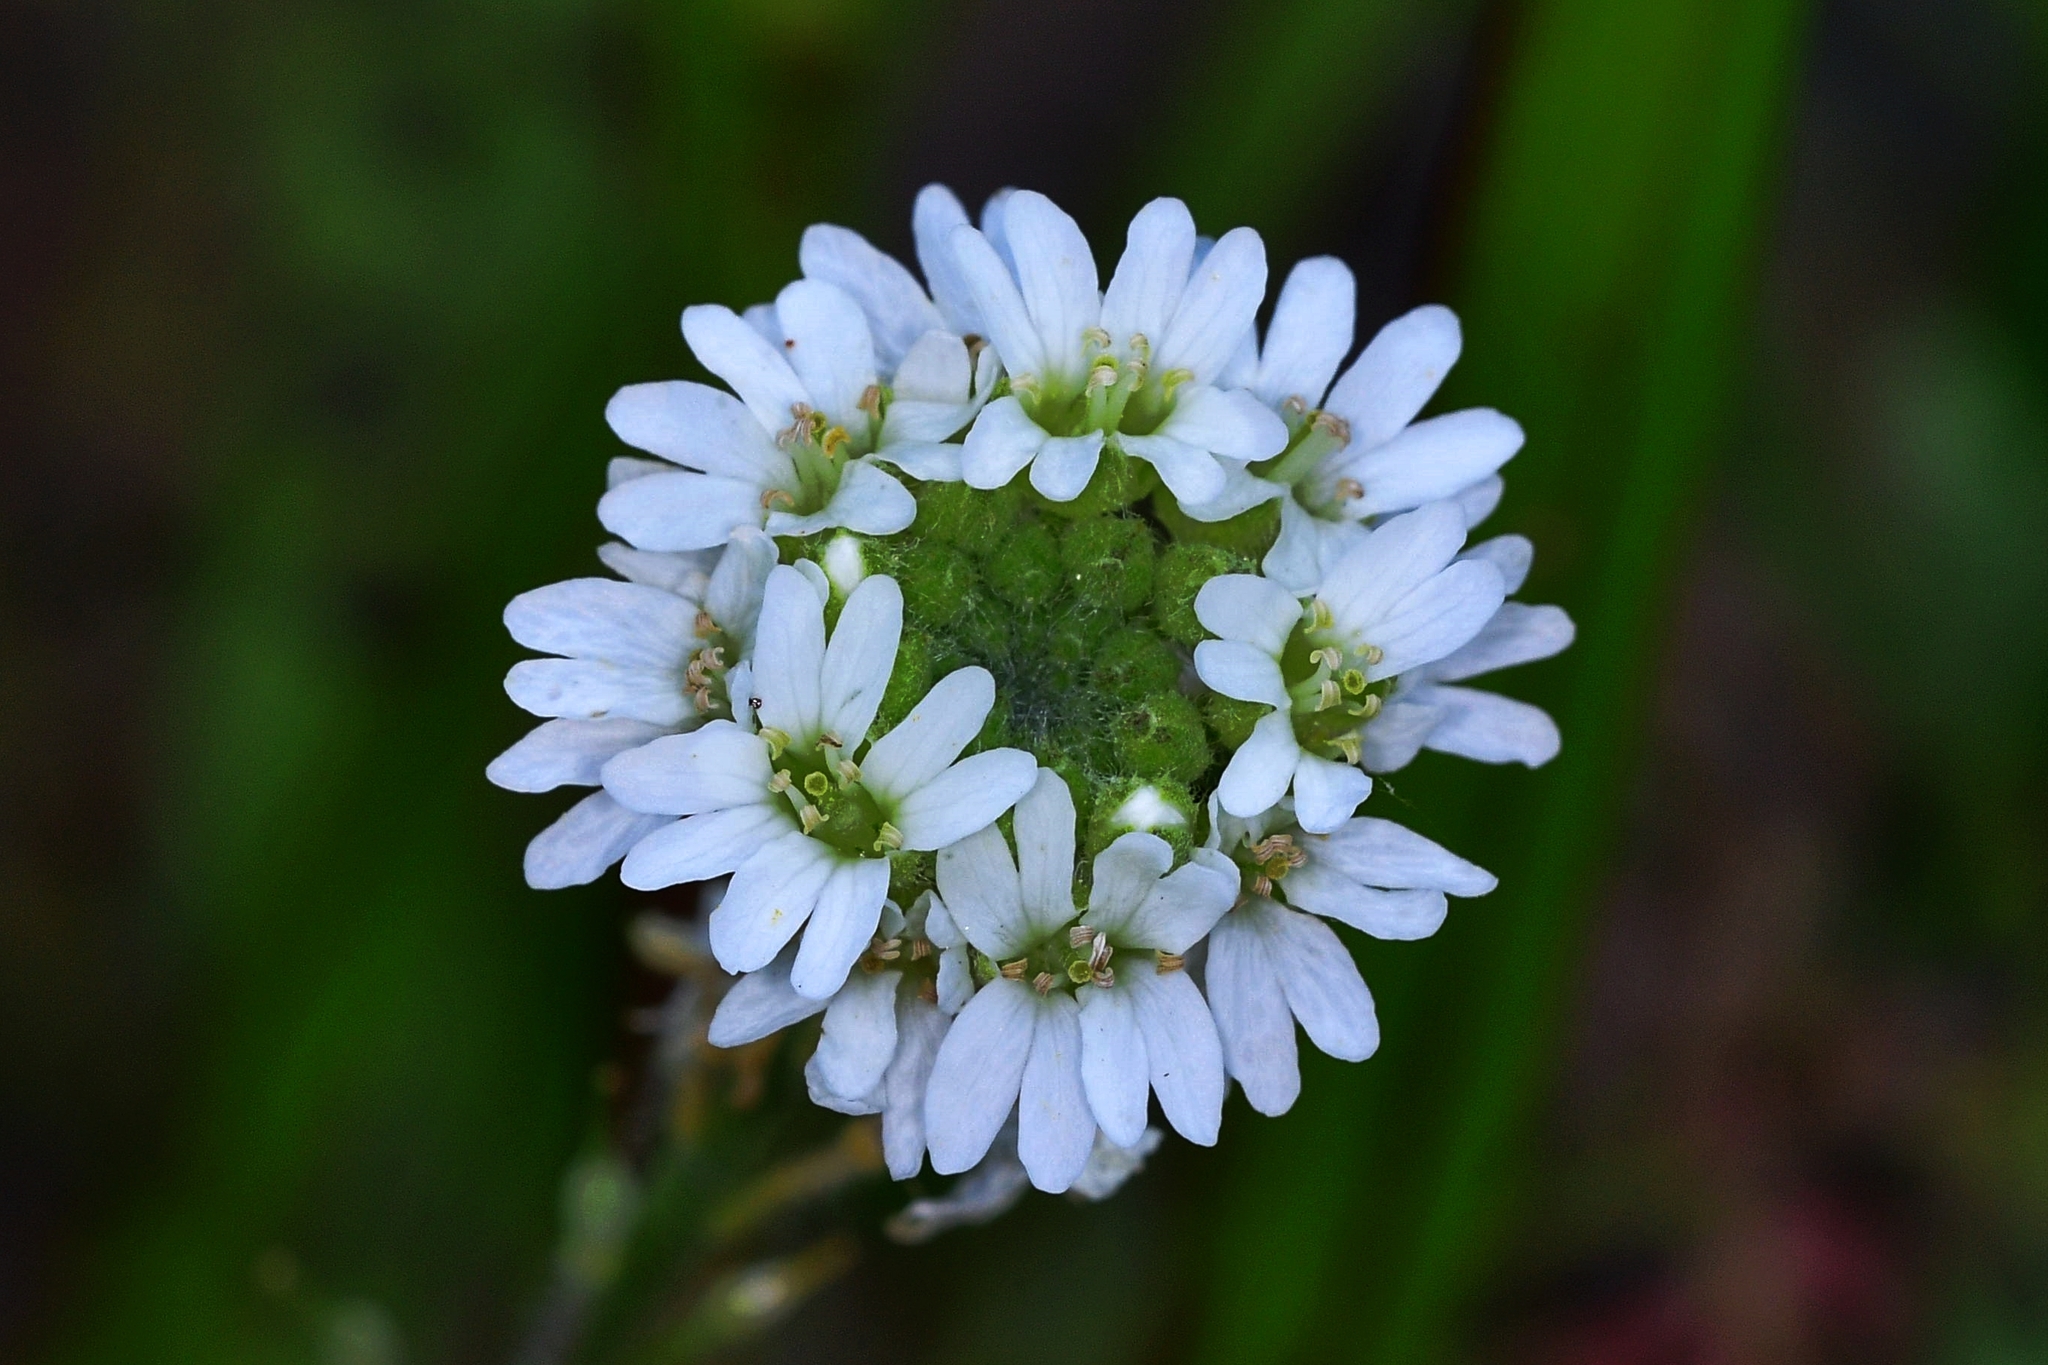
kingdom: Plantae
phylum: Tracheophyta
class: Magnoliopsida
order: Brassicales
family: Brassicaceae
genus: Berteroa
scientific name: Berteroa incana
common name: Hoary alison
